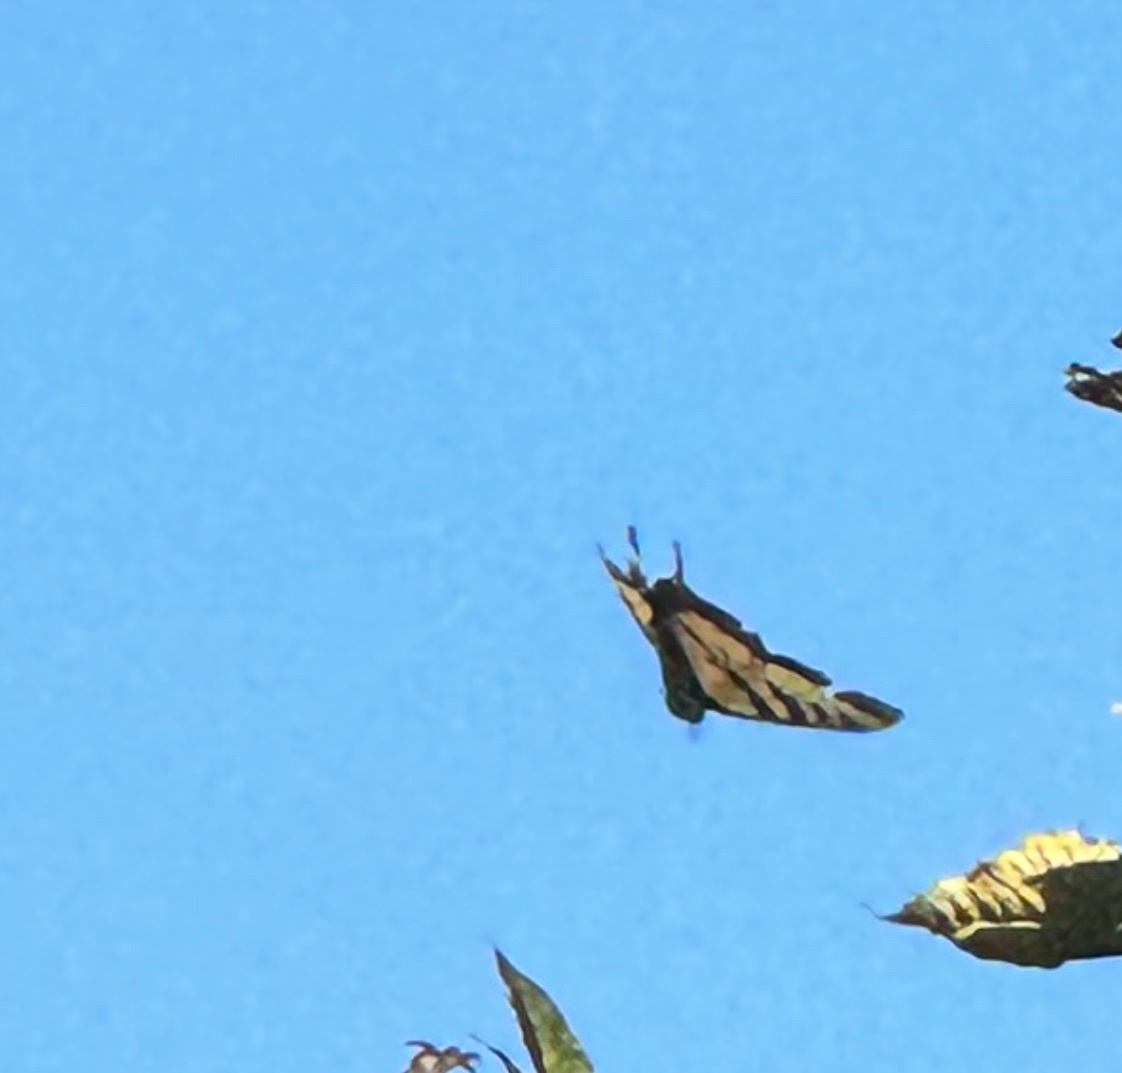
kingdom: Animalia
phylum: Arthropoda
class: Insecta
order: Lepidoptera
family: Papilionidae
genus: Papilio
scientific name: Papilio rutulus
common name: Western tiger swallowtail
